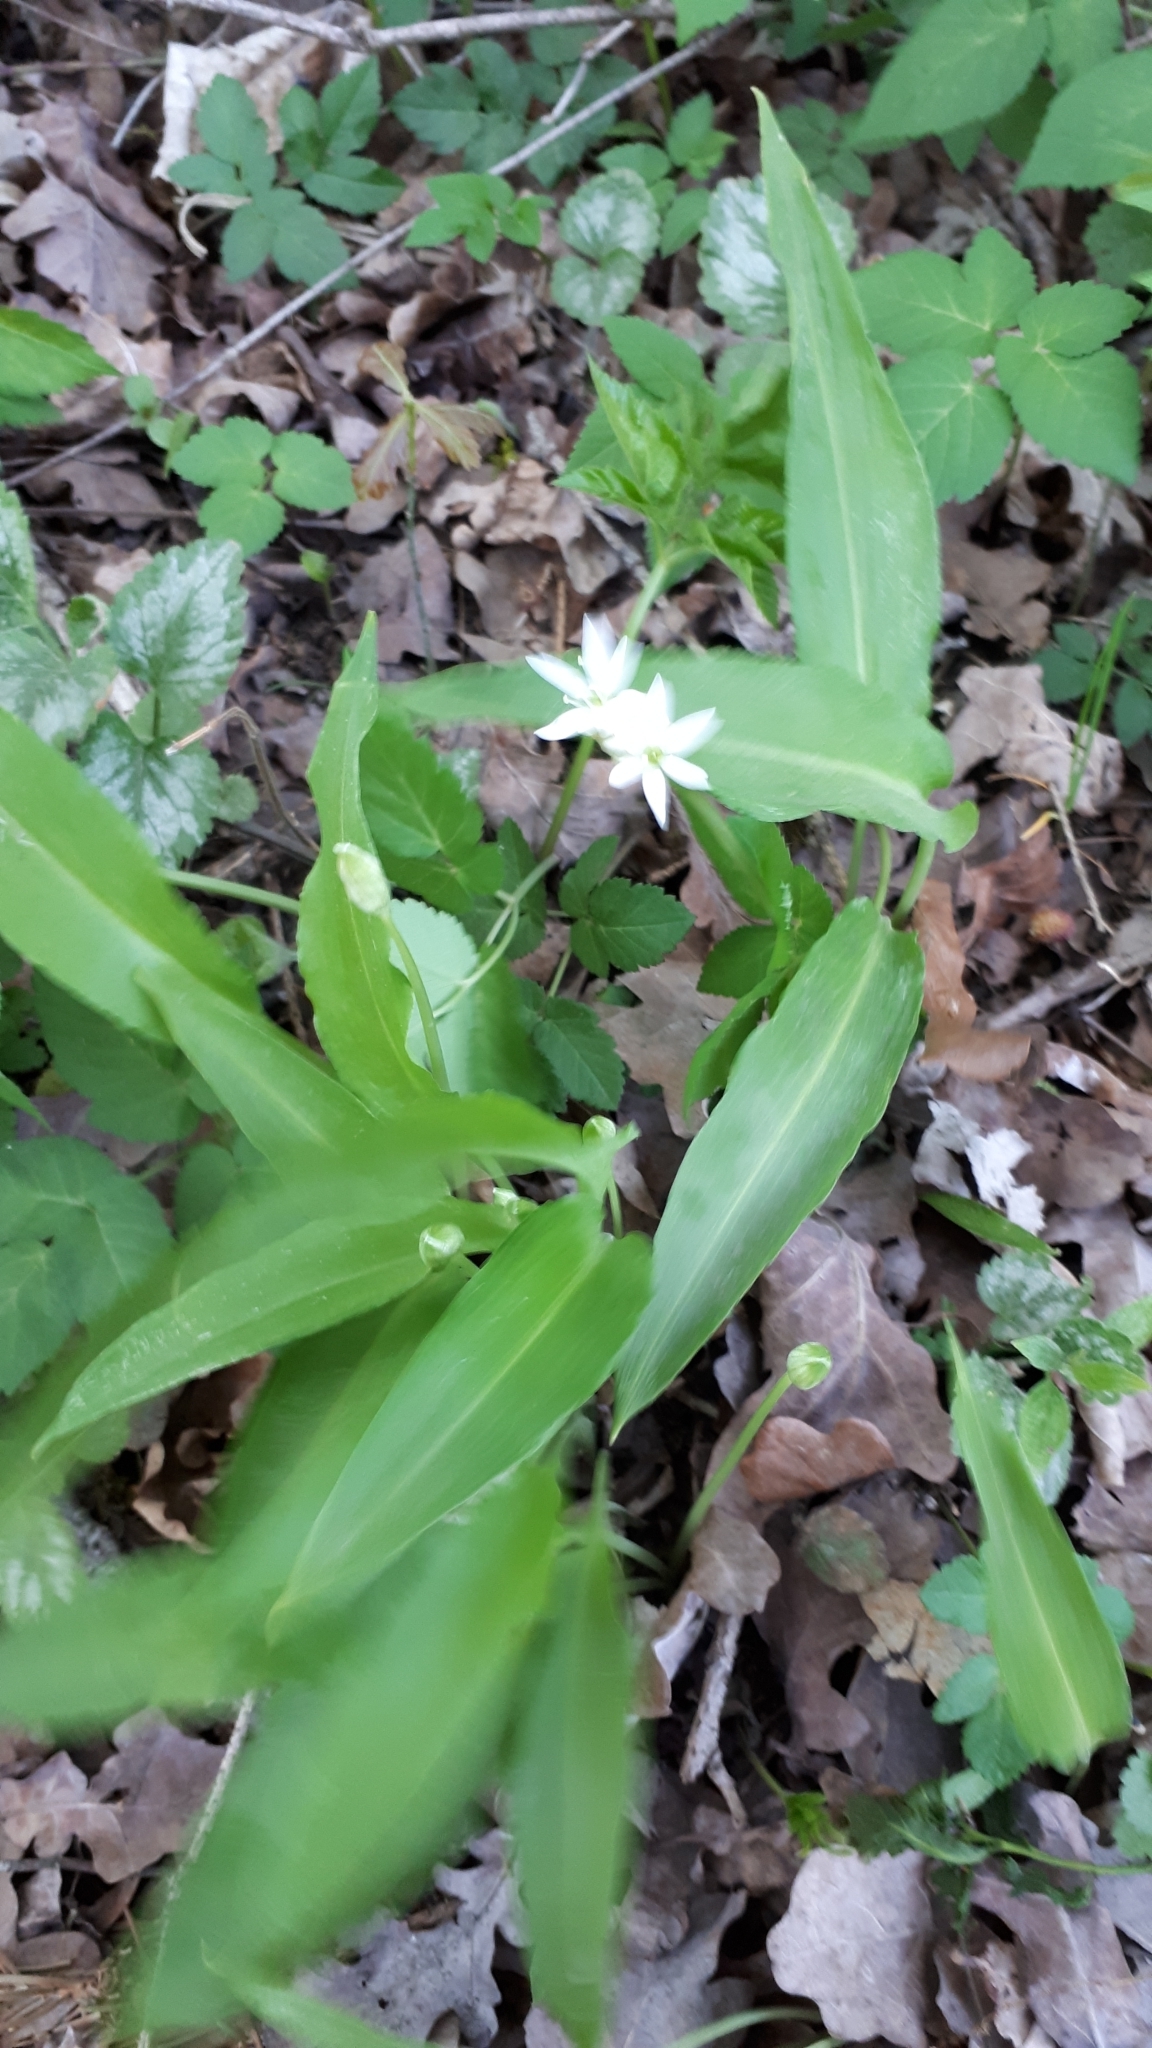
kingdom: Plantae
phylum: Tracheophyta
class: Liliopsida
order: Asparagales
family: Amaryllidaceae
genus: Allium
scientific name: Allium ursinum
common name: Ramsons
